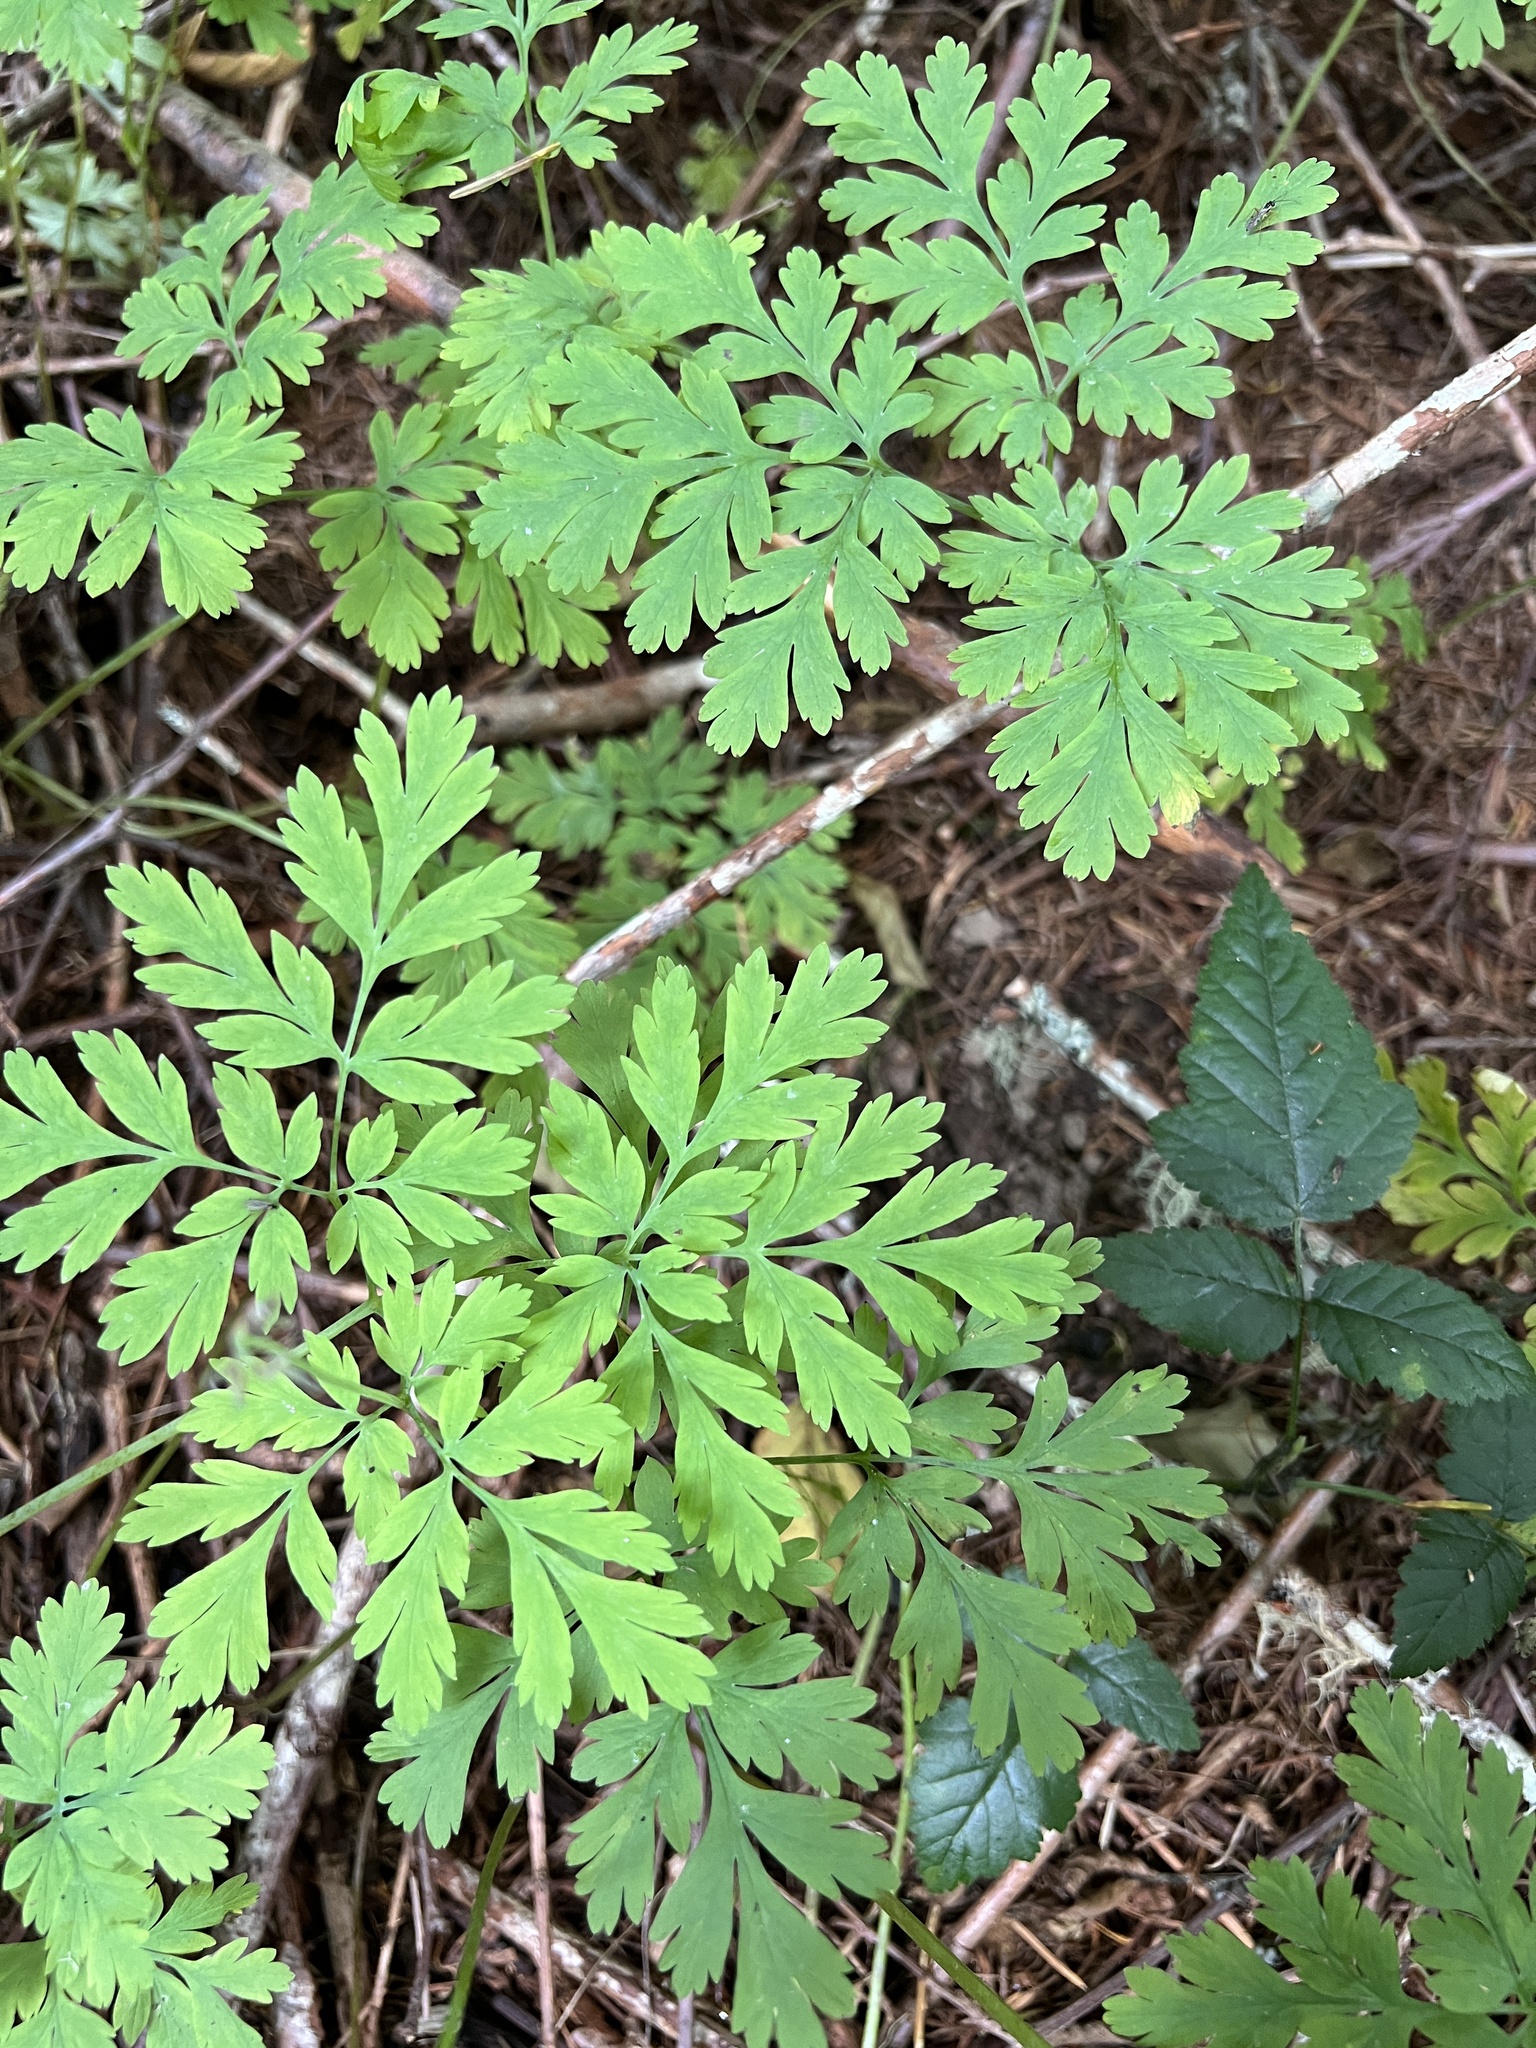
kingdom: Plantae
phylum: Tracheophyta
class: Magnoliopsida
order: Ranunculales
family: Papaveraceae
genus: Dicentra
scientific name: Dicentra formosa
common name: Bleeding-heart
